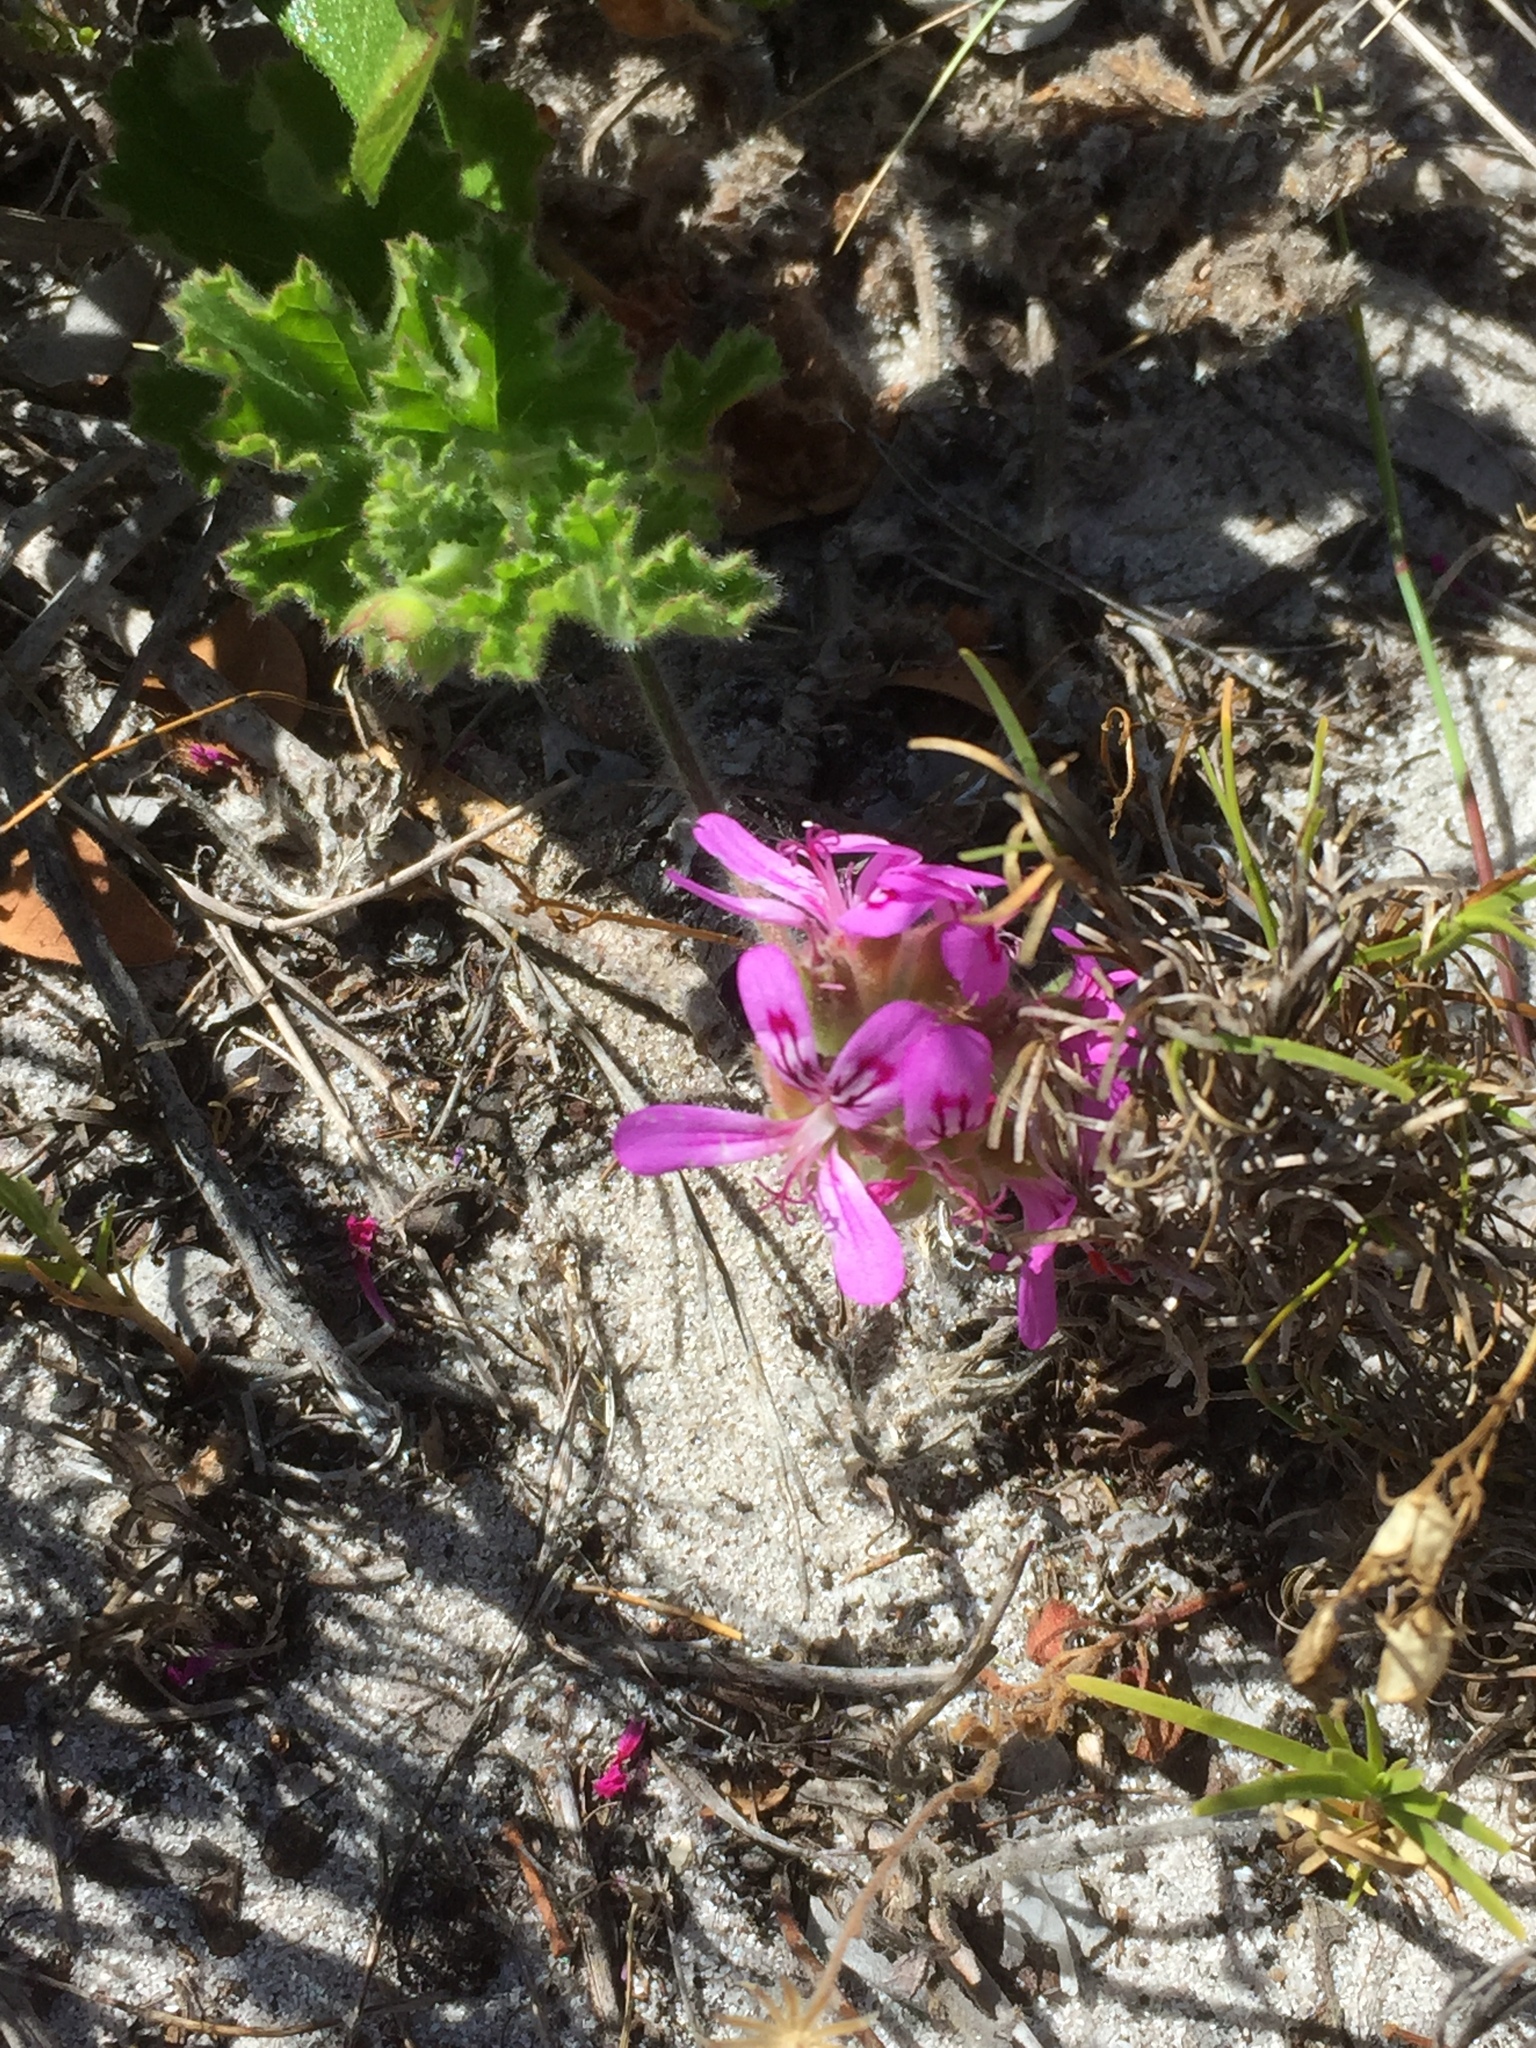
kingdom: Plantae
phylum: Tracheophyta
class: Magnoliopsida
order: Geraniales
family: Geraniaceae
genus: Pelargonium
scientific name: Pelargonium capitatum
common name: Rose scented geranium
